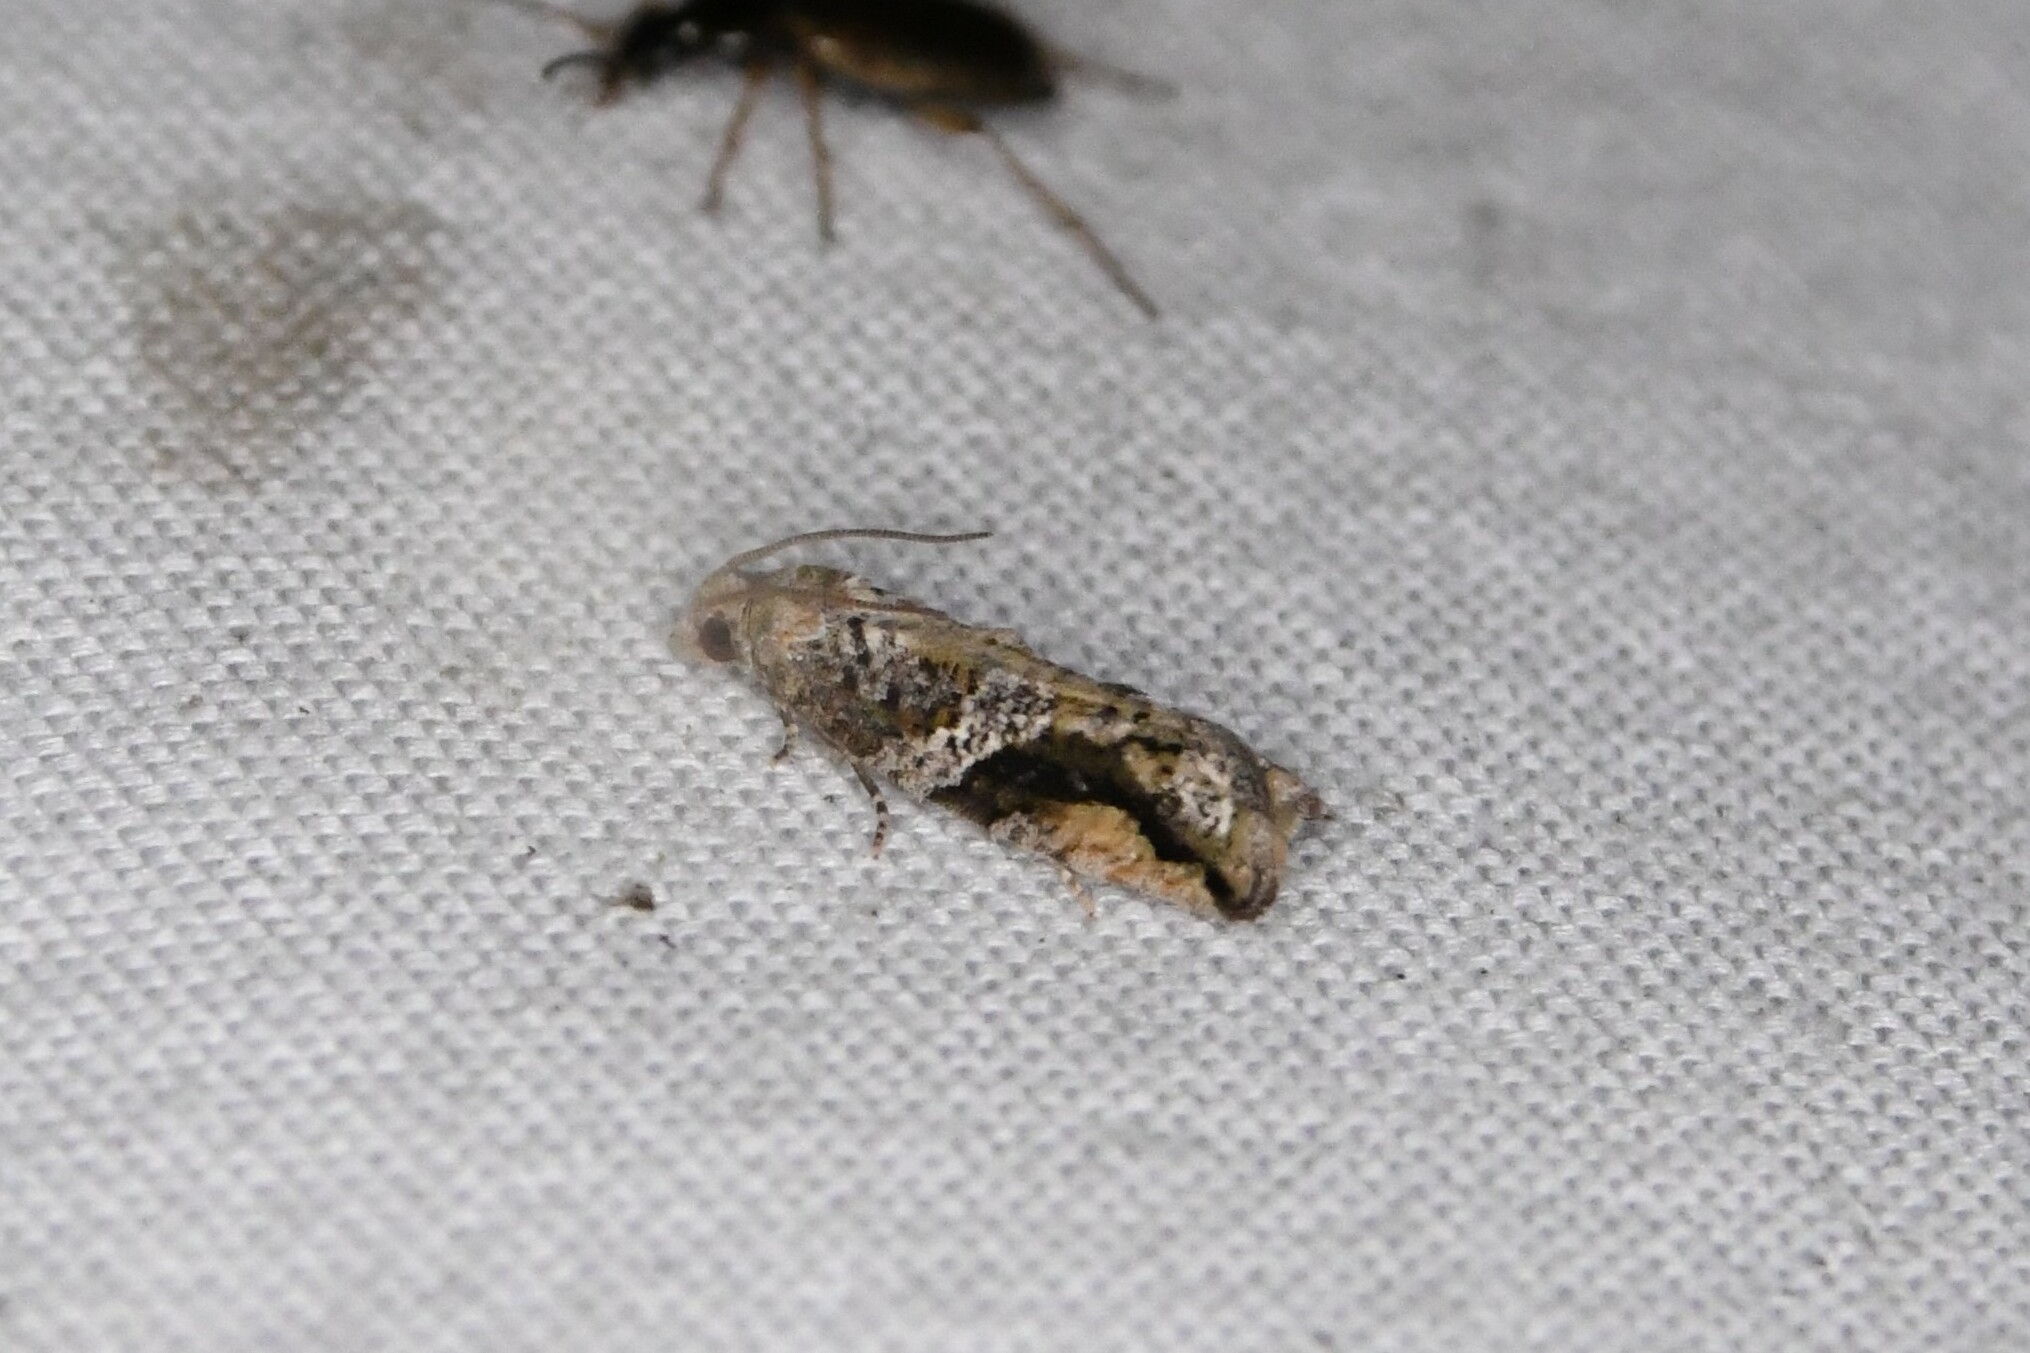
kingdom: Animalia
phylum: Arthropoda
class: Insecta
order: Lepidoptera
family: Tortricidae
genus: Proteoteras
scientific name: Proteoteras crescentana
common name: Black-crescent proteoteras moth
